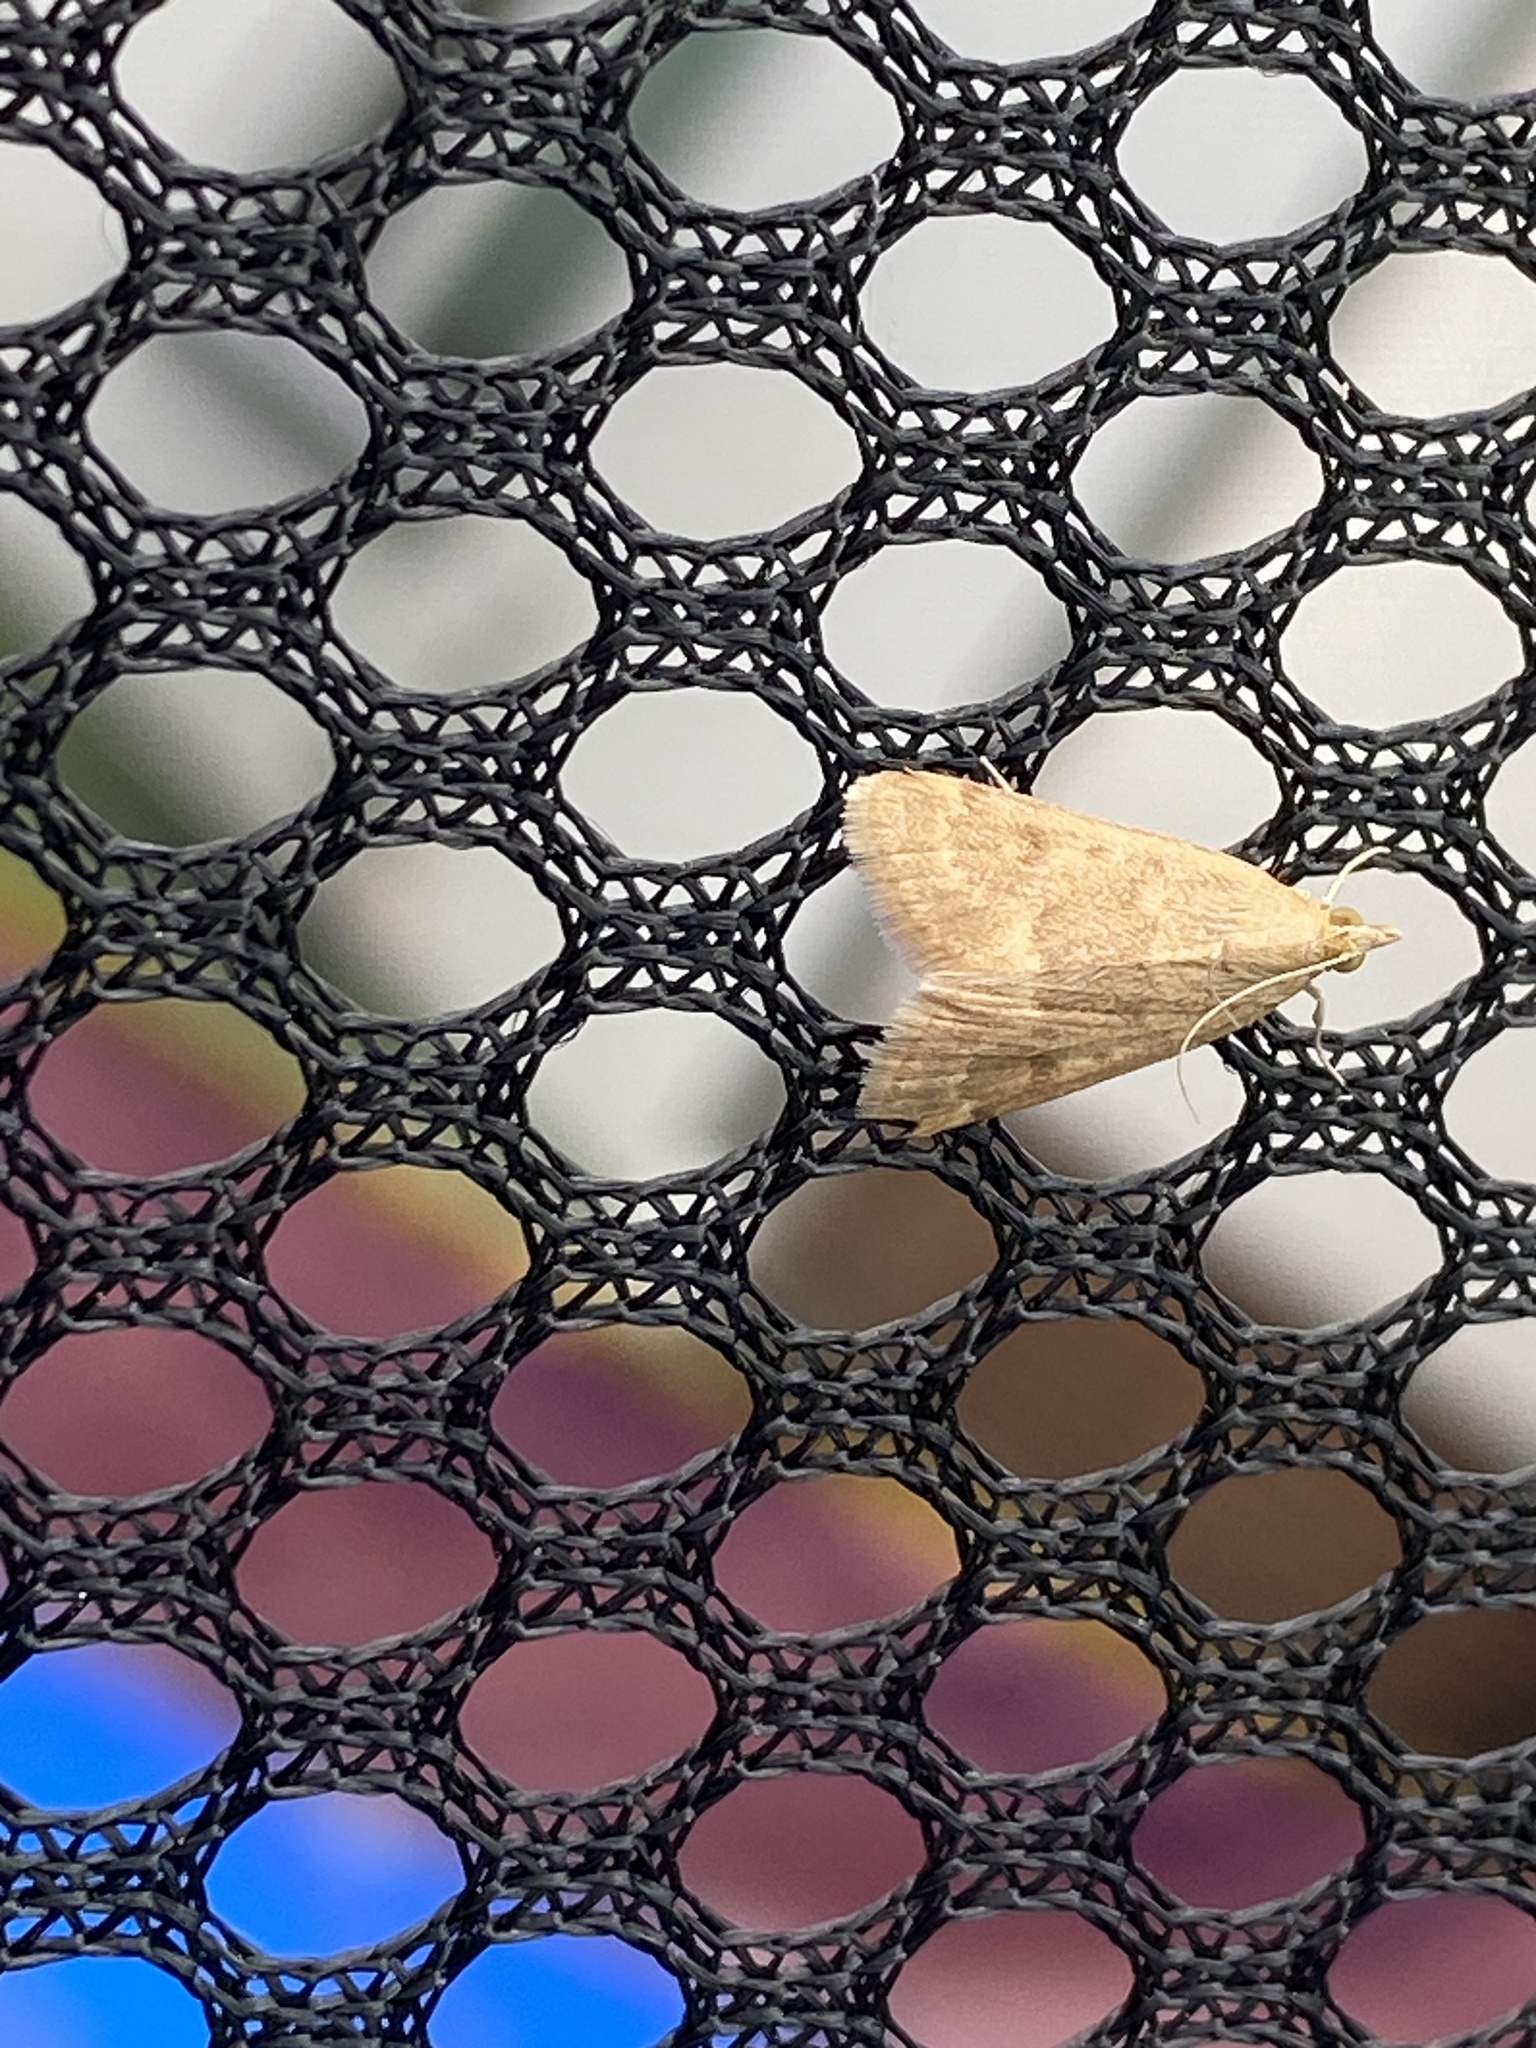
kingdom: Animalia
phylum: Arthropoda
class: Insecta
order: Lepidoptera
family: Crambidae
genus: Achyra
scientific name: Achyra rantalis
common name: Garden webworm
